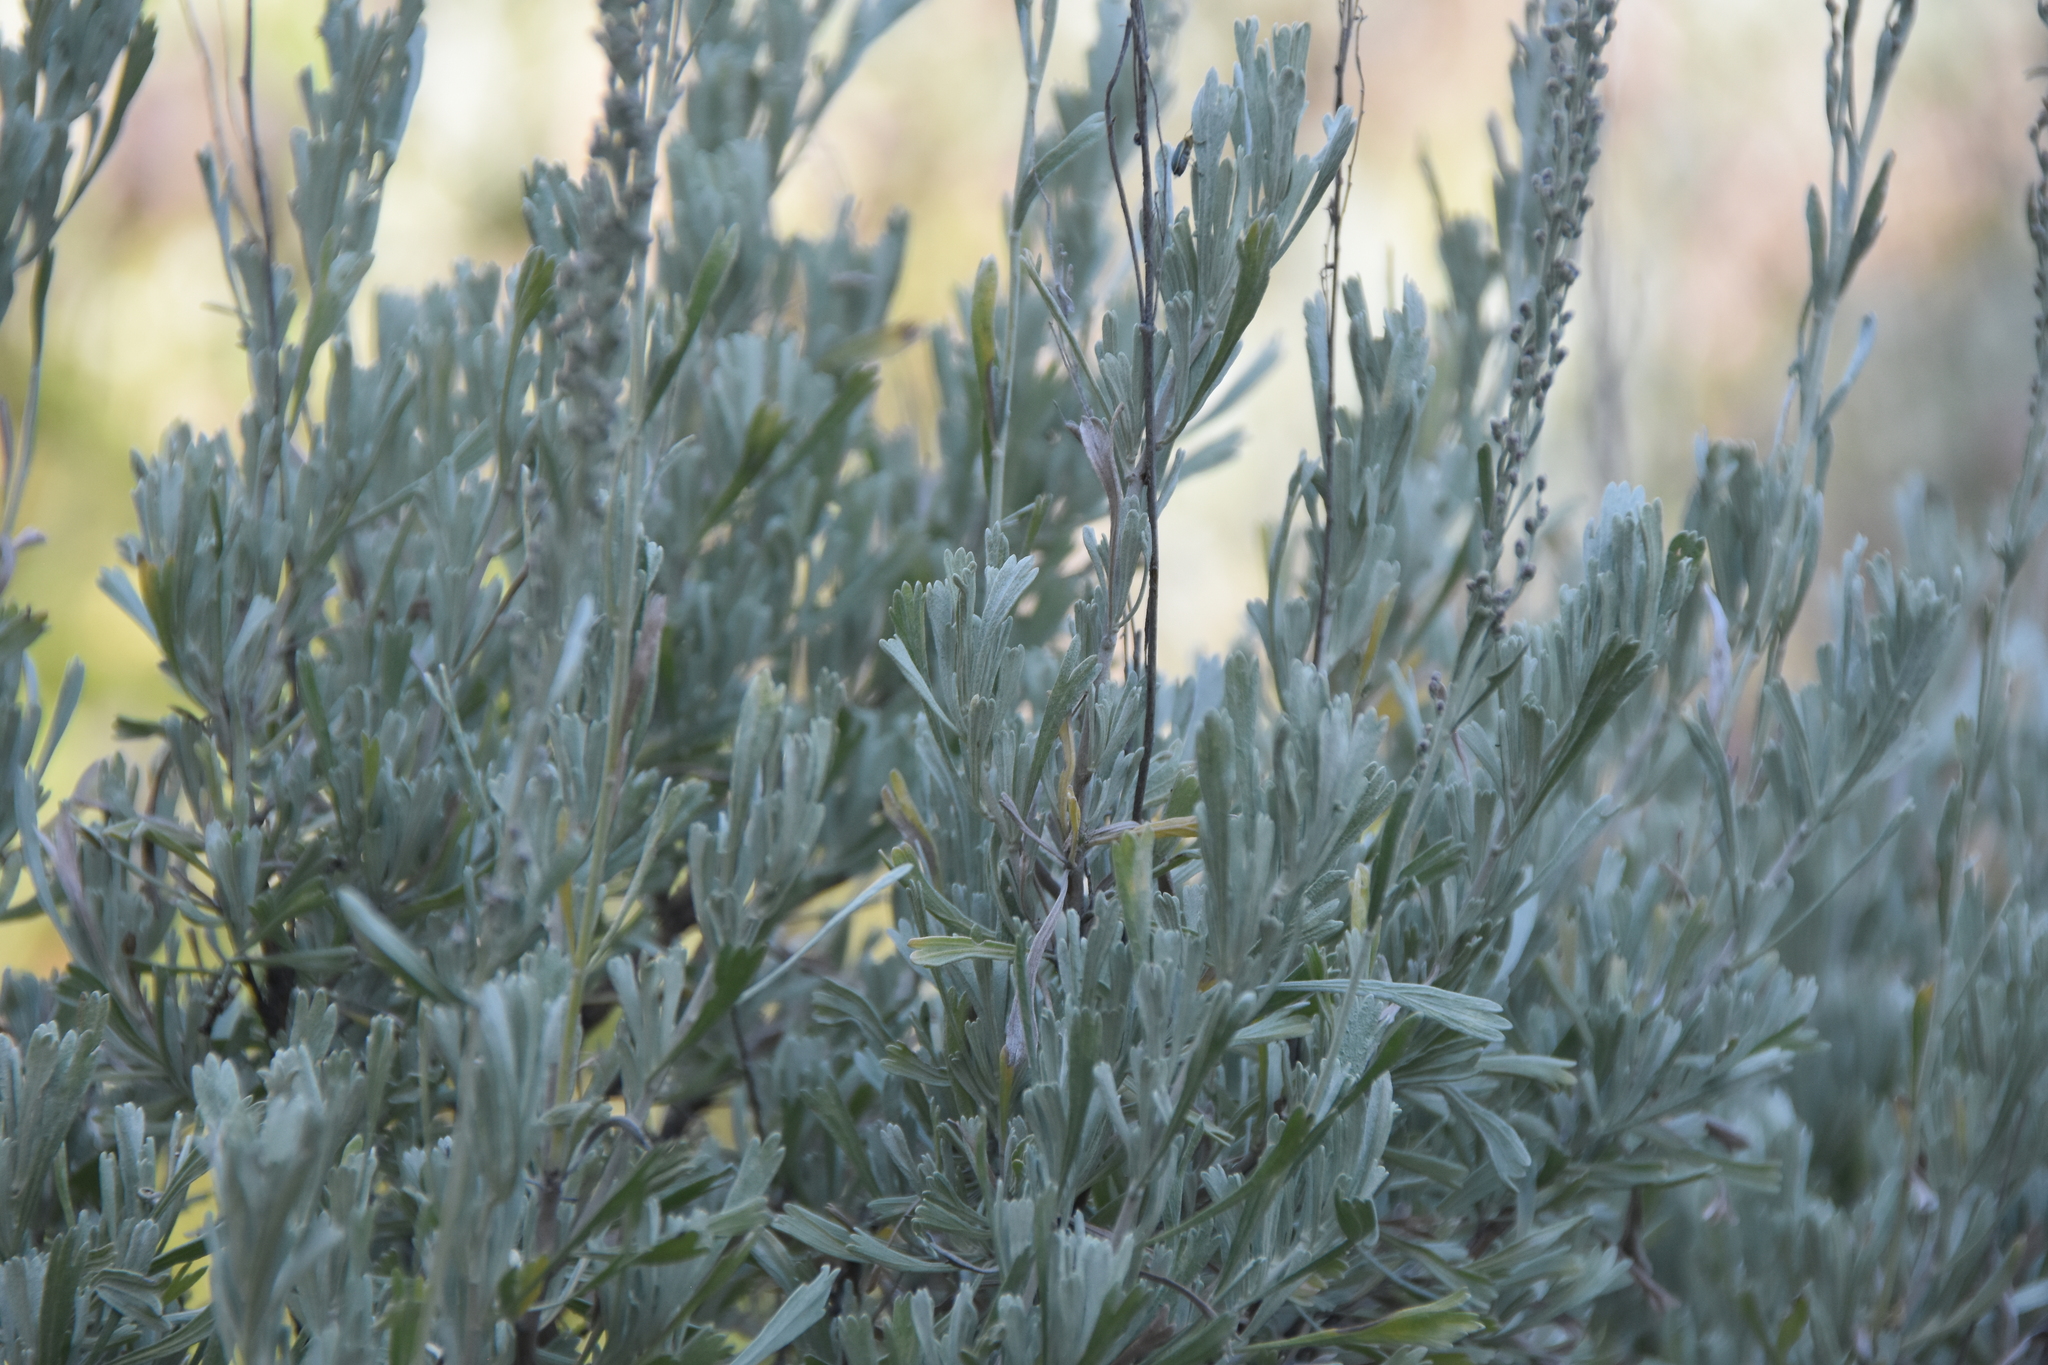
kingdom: Plantae
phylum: Tracheophyta
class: Magnoliopsida
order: Asterales
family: Asteraceae
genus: Artemisia
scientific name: Artemisia tridentata
